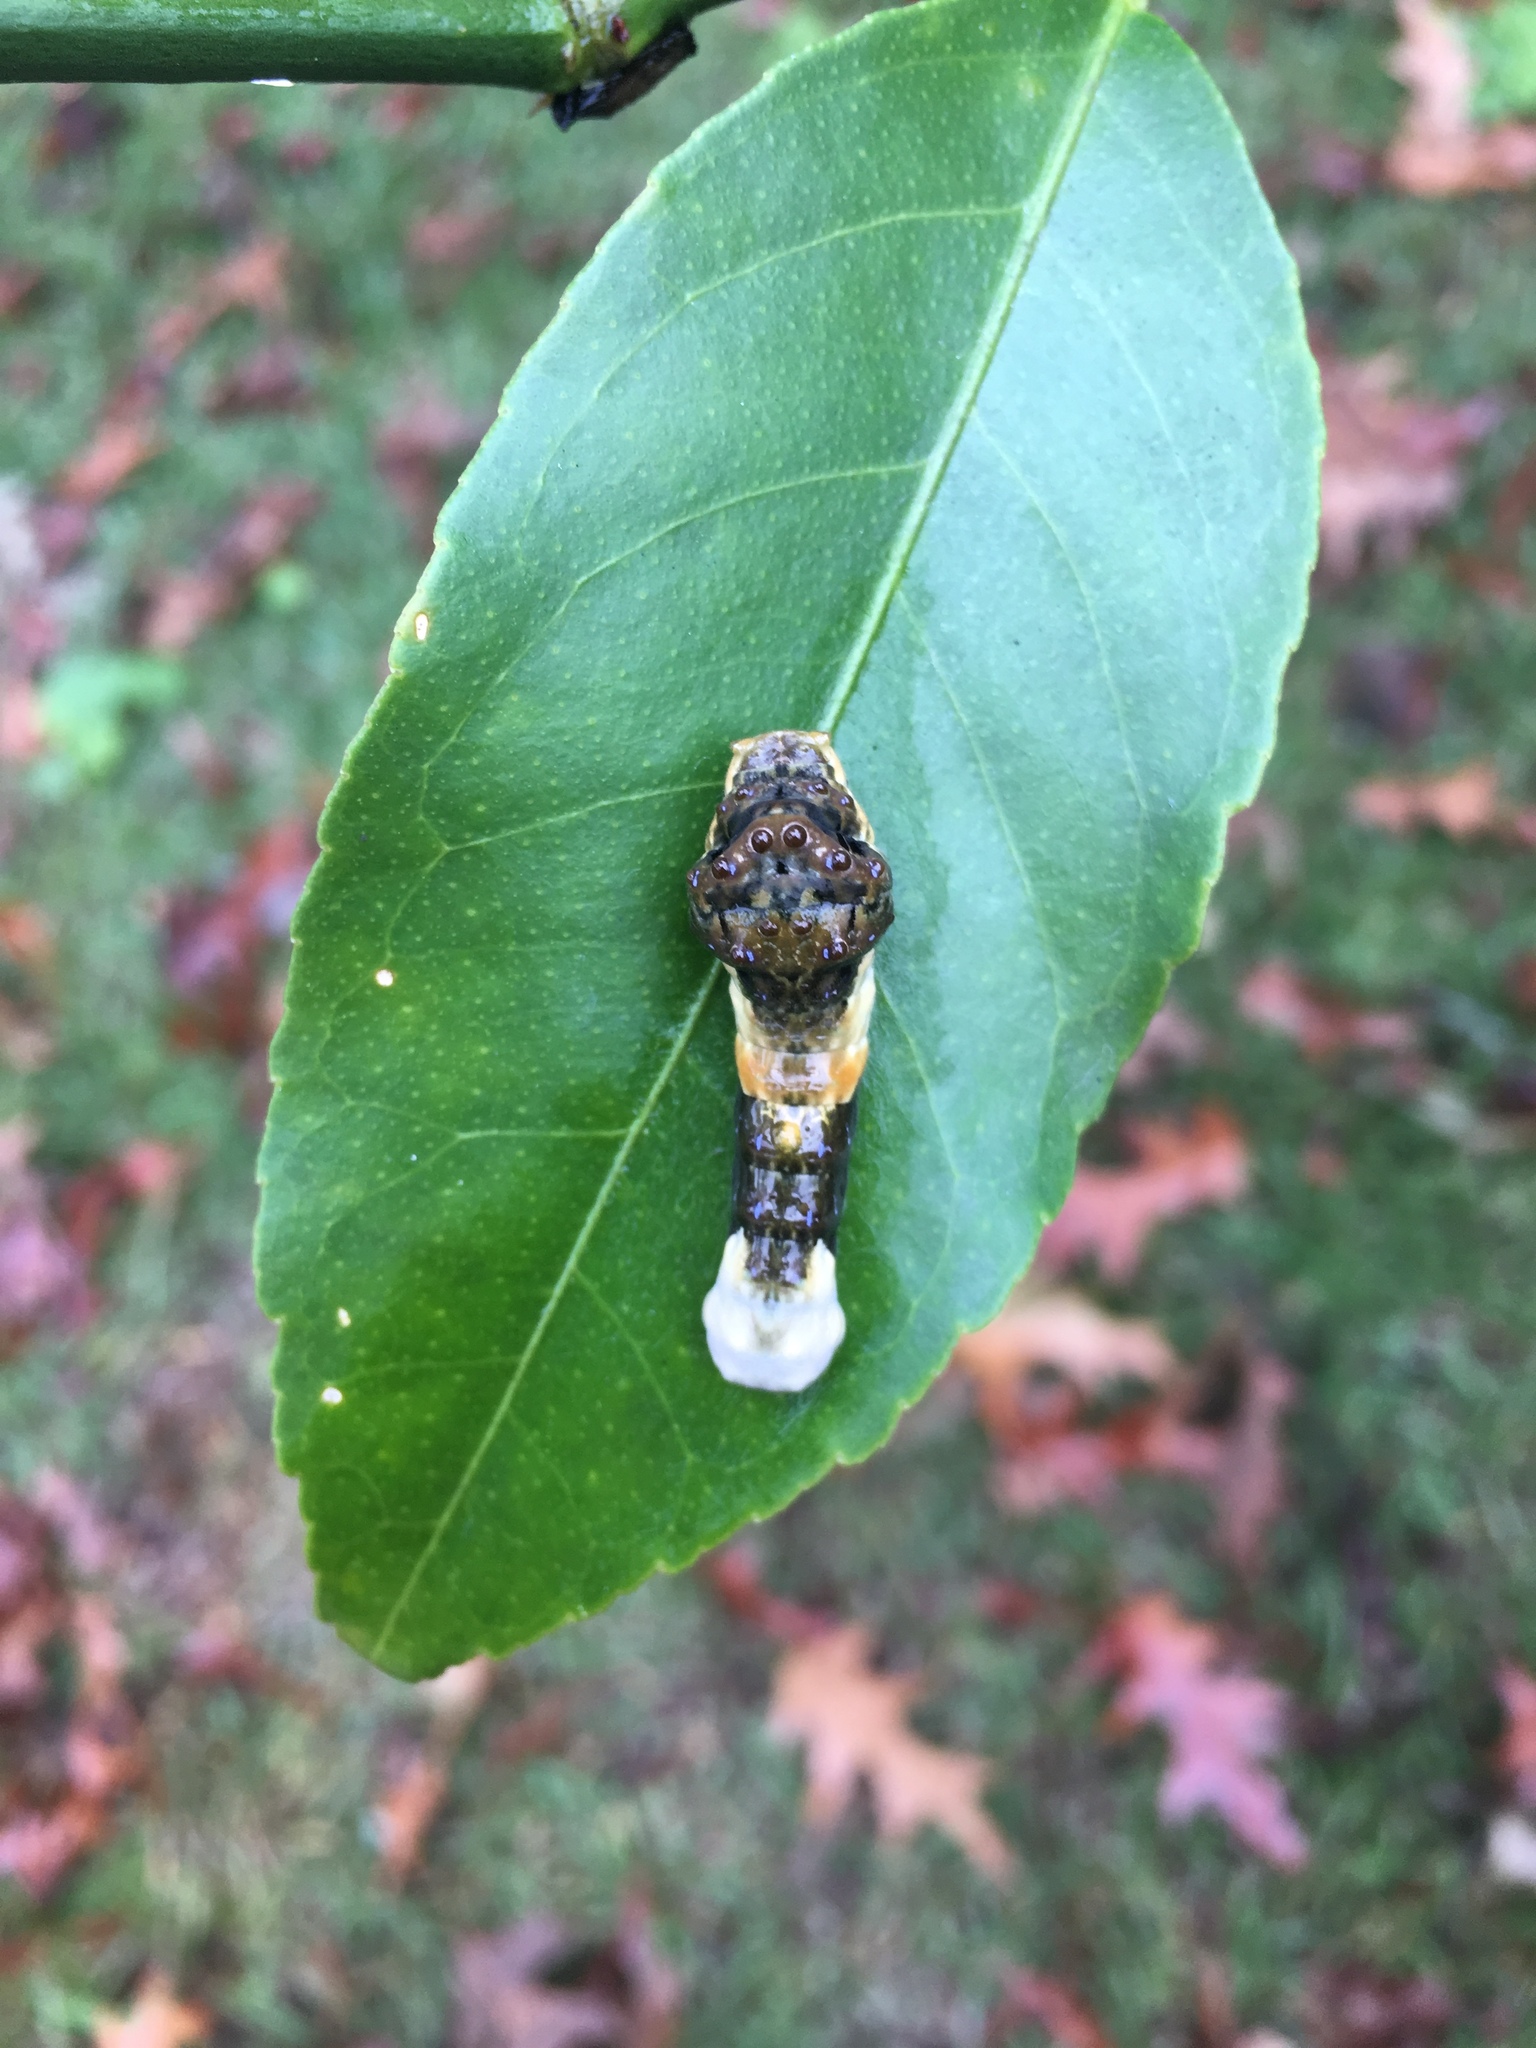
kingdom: Animalia
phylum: Arthropoda
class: Insecta
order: Lepidoptera
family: Papilionidae
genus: Papilio
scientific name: Papilio cresphontes
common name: Giant swallowtail
